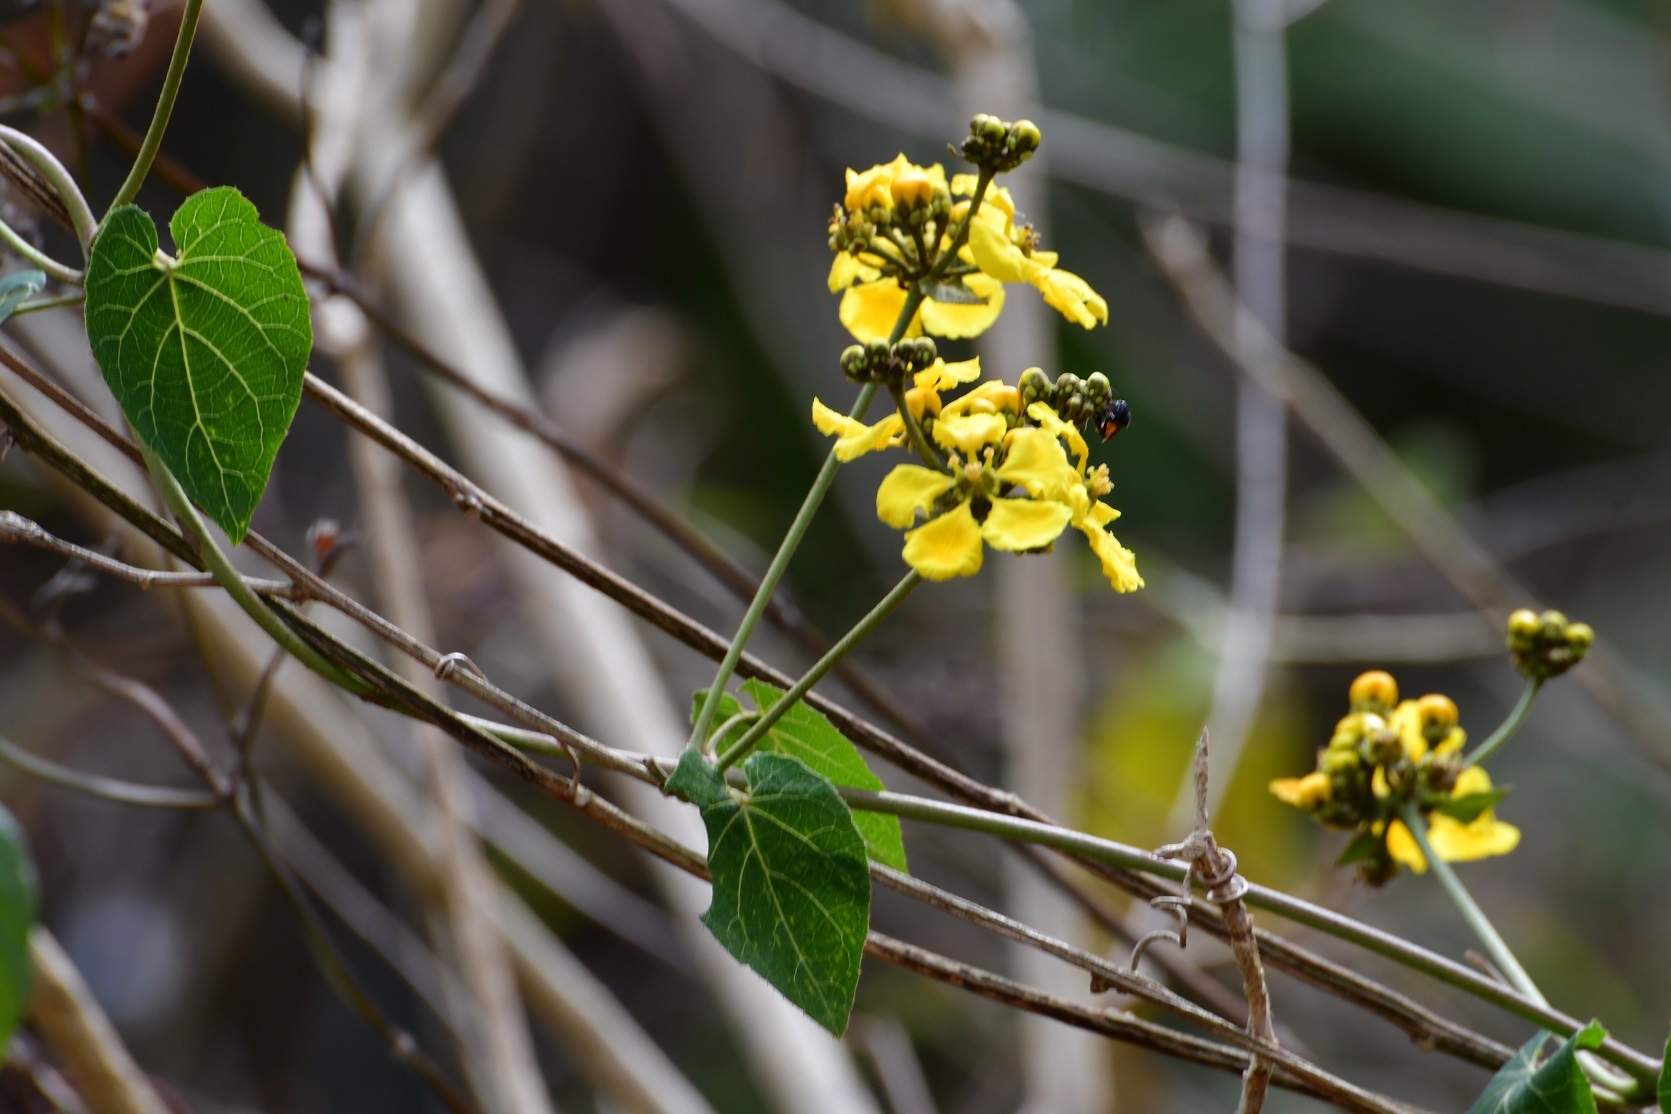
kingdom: Plantae
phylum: Tracheophyta
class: Magnoliopsida
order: Malpighiales
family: Malpighiaceae
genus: Stigmaphyllon
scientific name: Stigmaphyllon dichotomum
